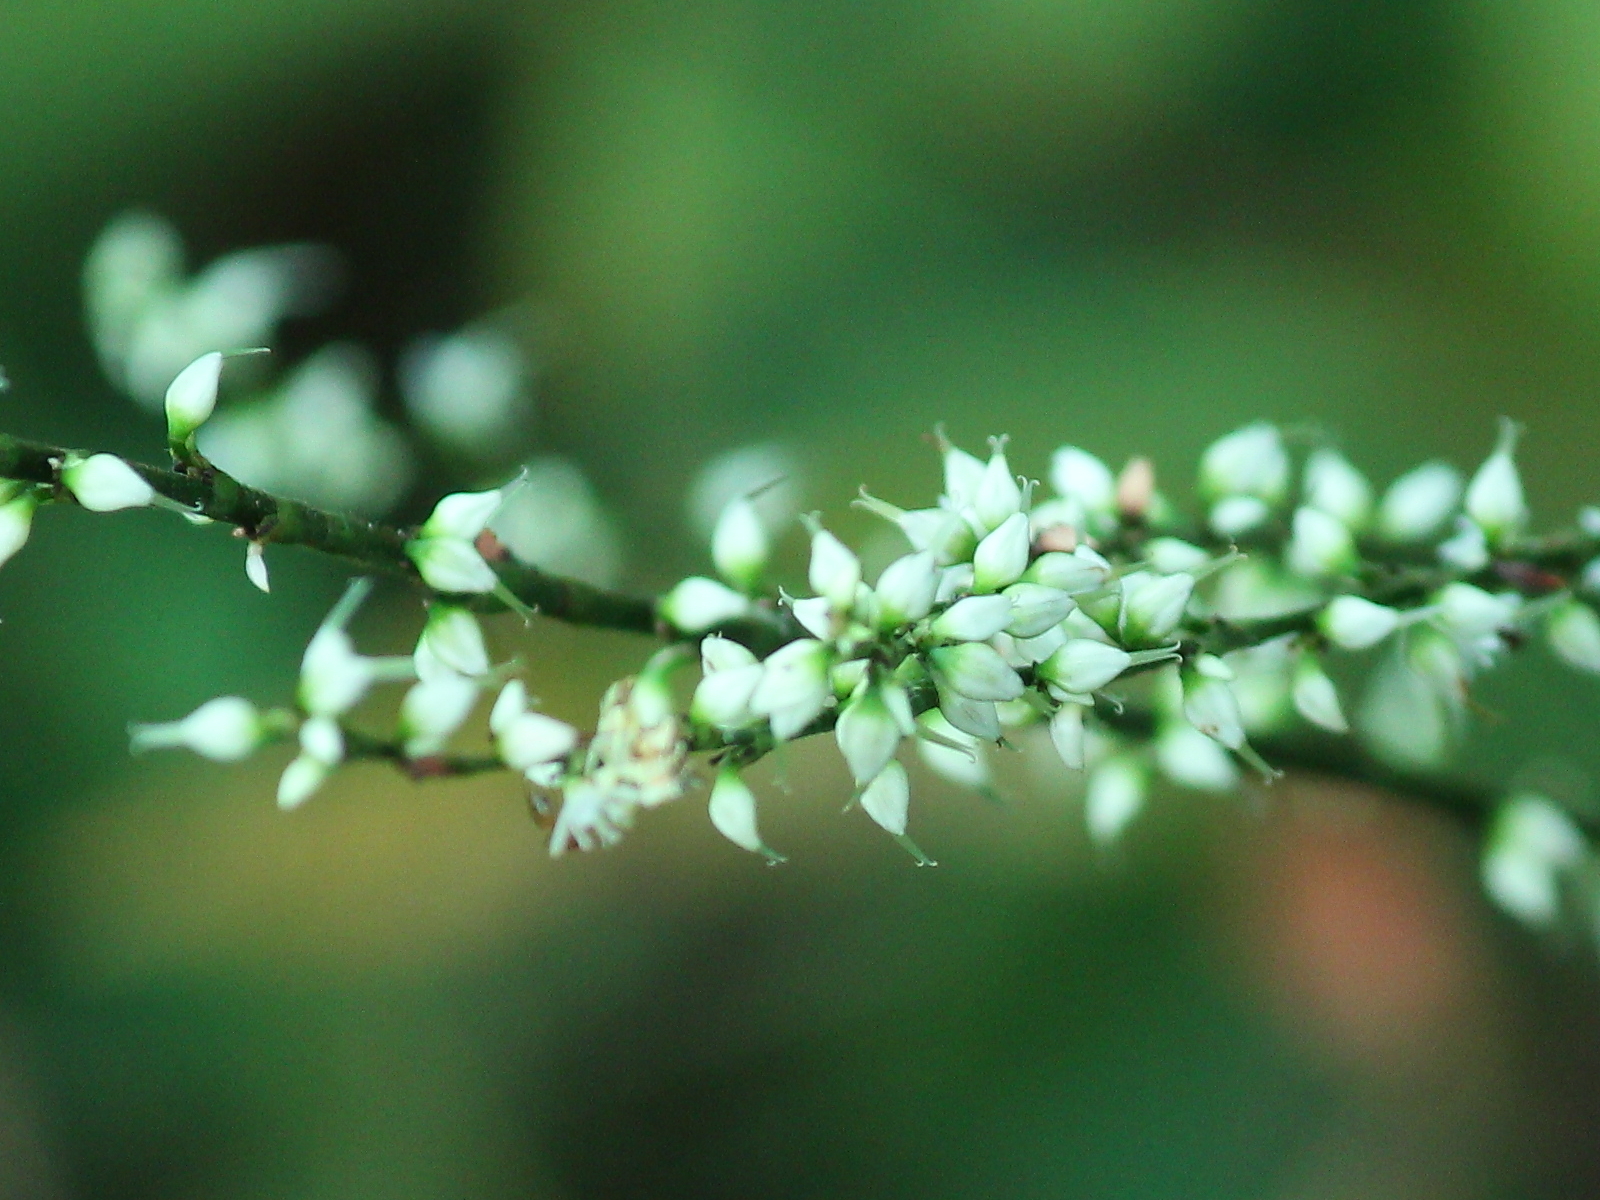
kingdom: Plantae
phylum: Tracheophyta
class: Magnoliopsida
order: Caryophyllales
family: Polygonaceae
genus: Persicaria
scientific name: Persicaria virginiana
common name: Jumpseed
